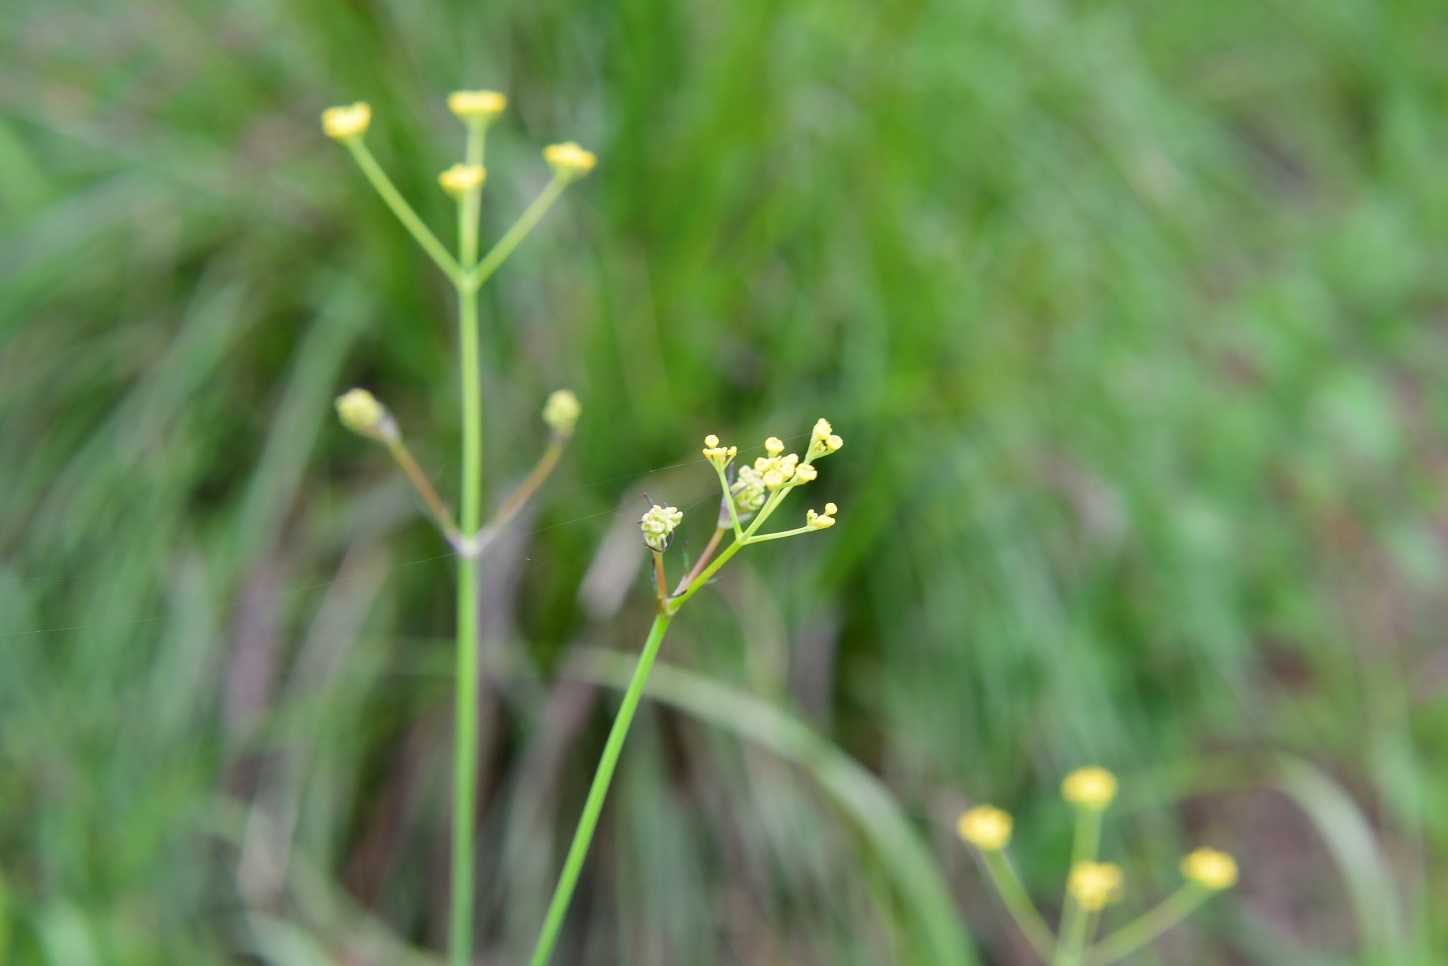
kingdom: Plantae
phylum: Tracheophyta
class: Magnoliopsida
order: Apiales
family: Apiaceae
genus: Donnellsmithia
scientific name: Donnellsmithia juncea
